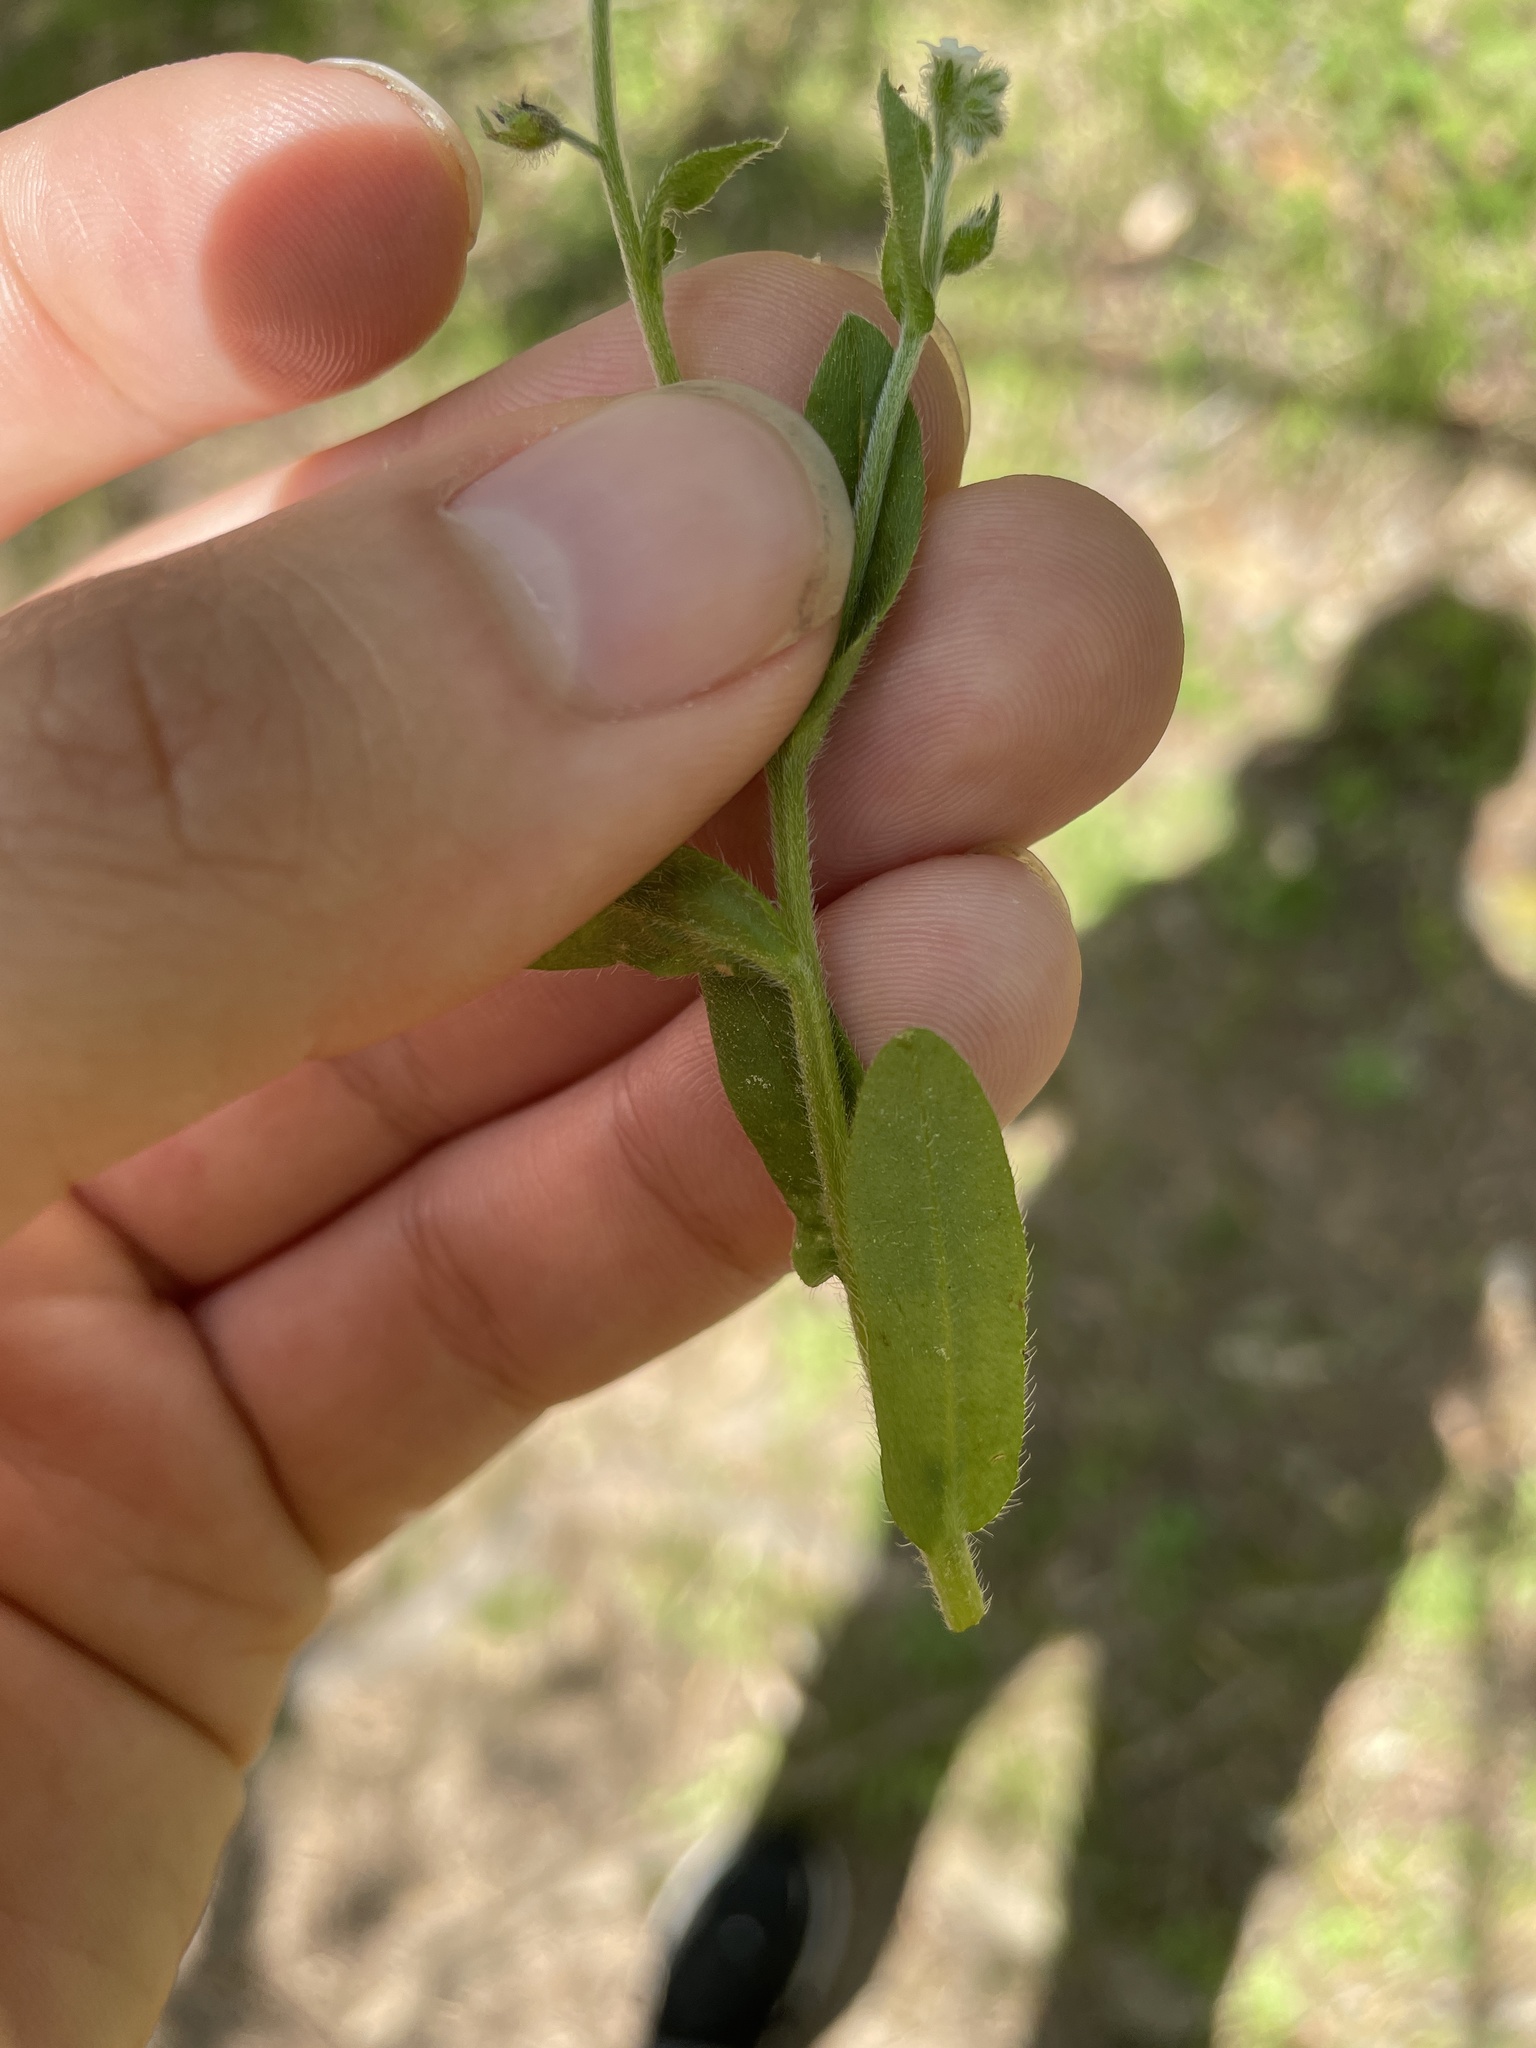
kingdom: Plantae
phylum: Tracheophyta
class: Magnoliopsida
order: Boraginales
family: Boraginaceae
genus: Myosotis
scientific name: Myosotis macrosperma
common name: Large-seed forget-me-not
